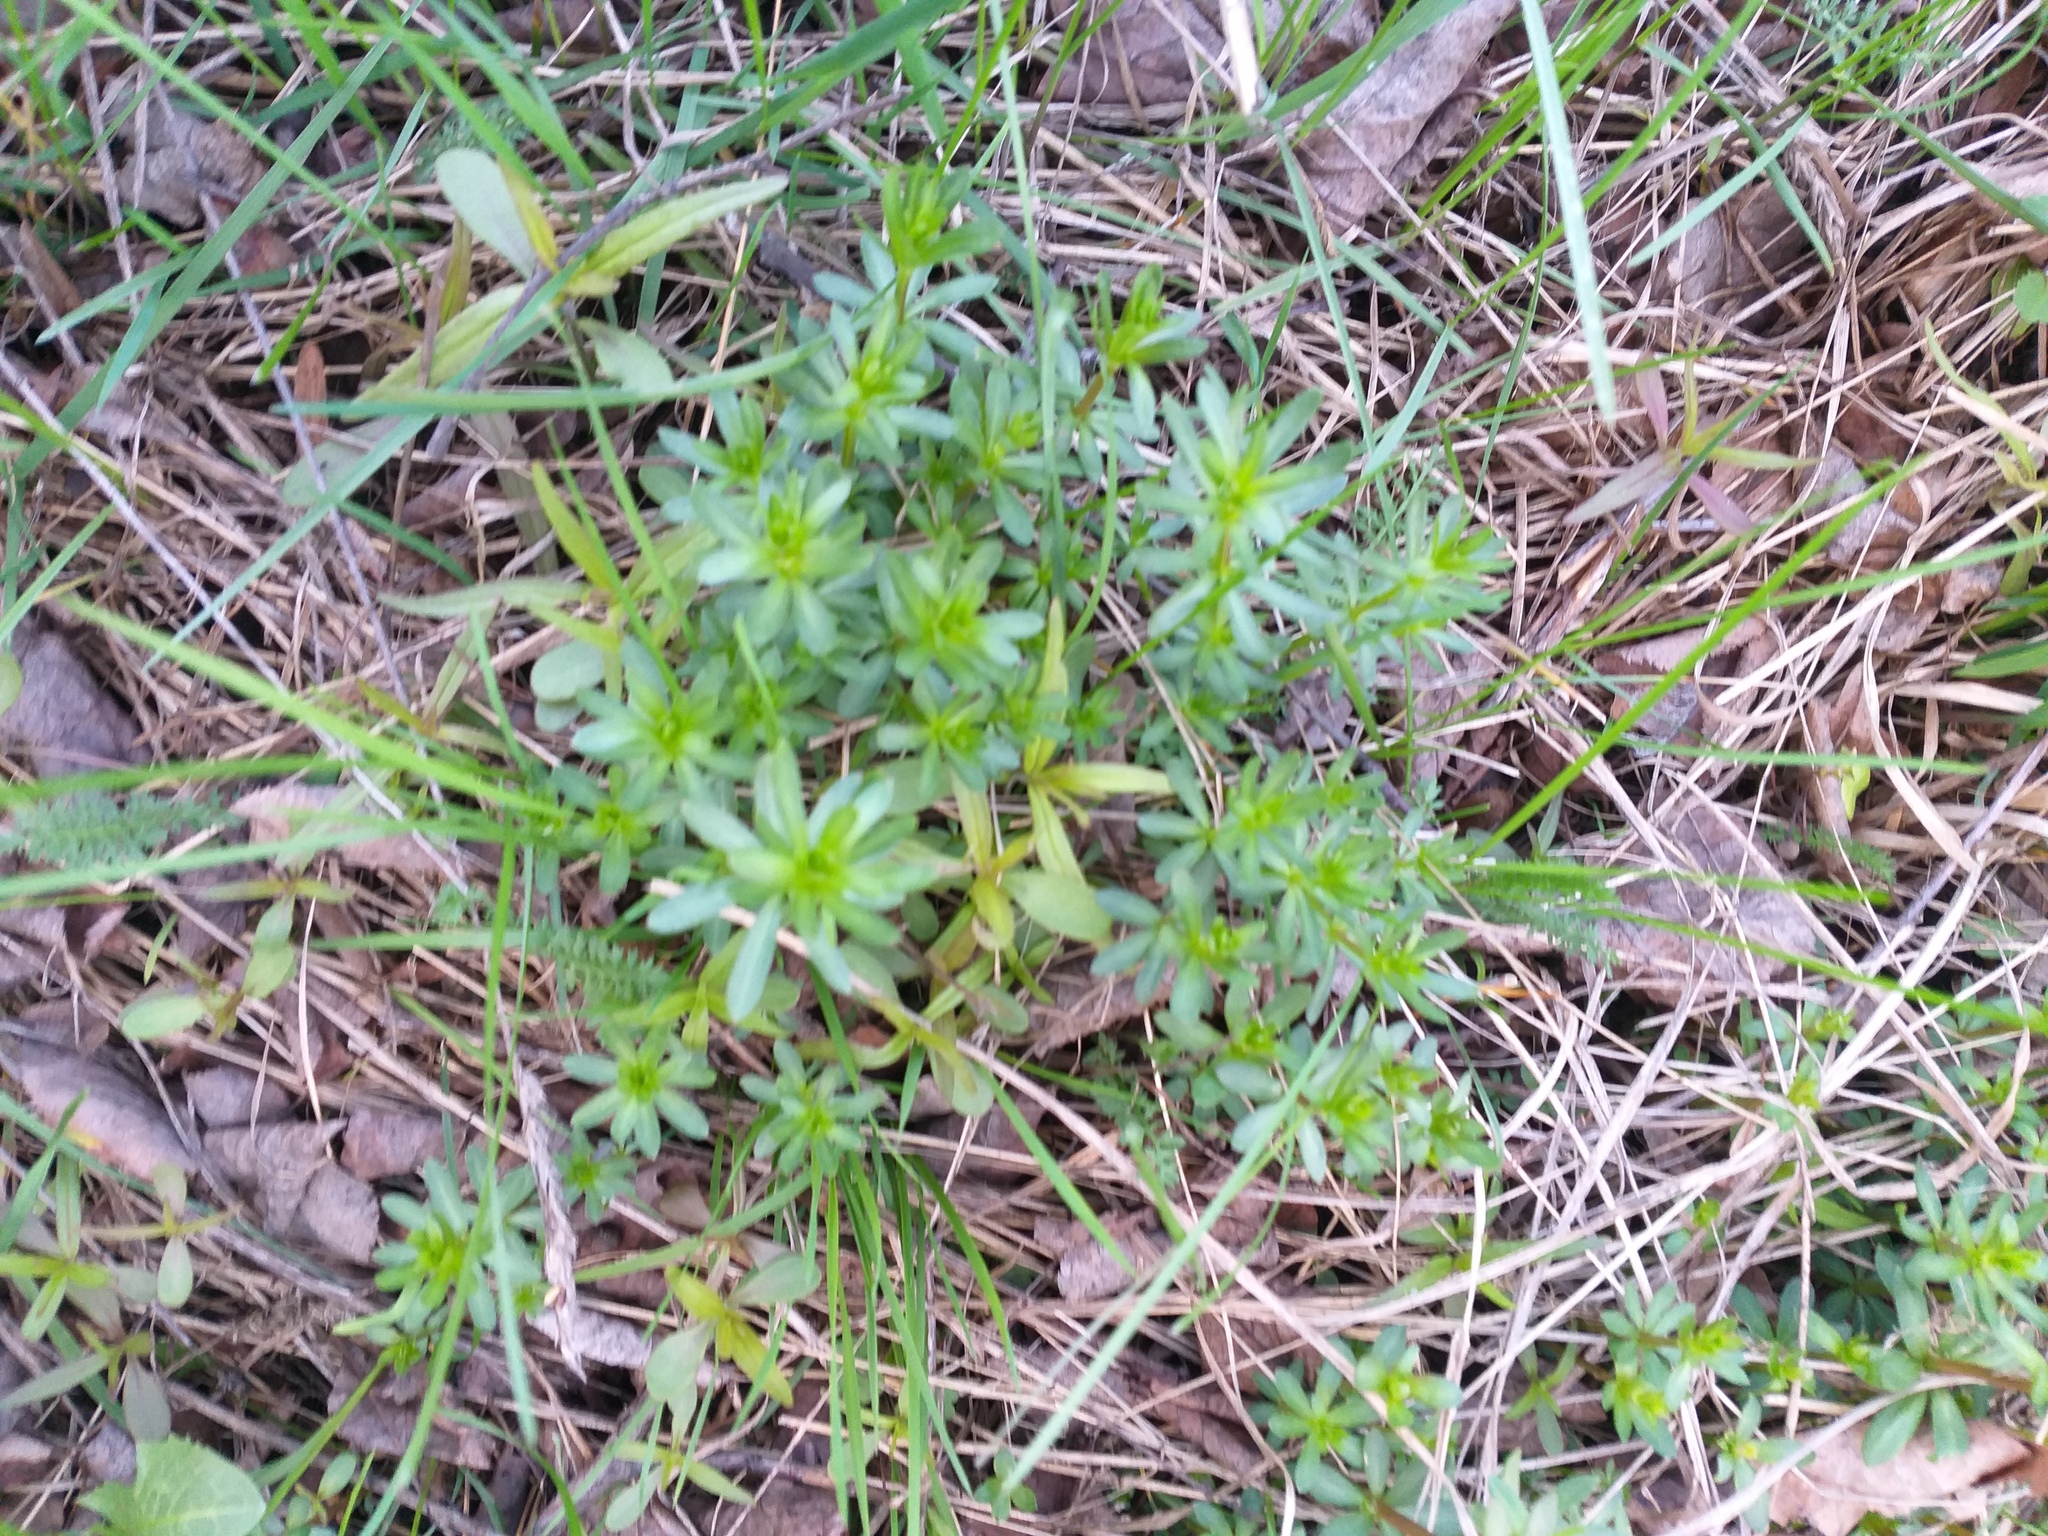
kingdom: Plantae
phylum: Tracheophyta
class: Magnoliopsida
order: Gentianales
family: Rubiaceae
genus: Galium
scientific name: Galium mollugo
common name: Hedge bedstraw
